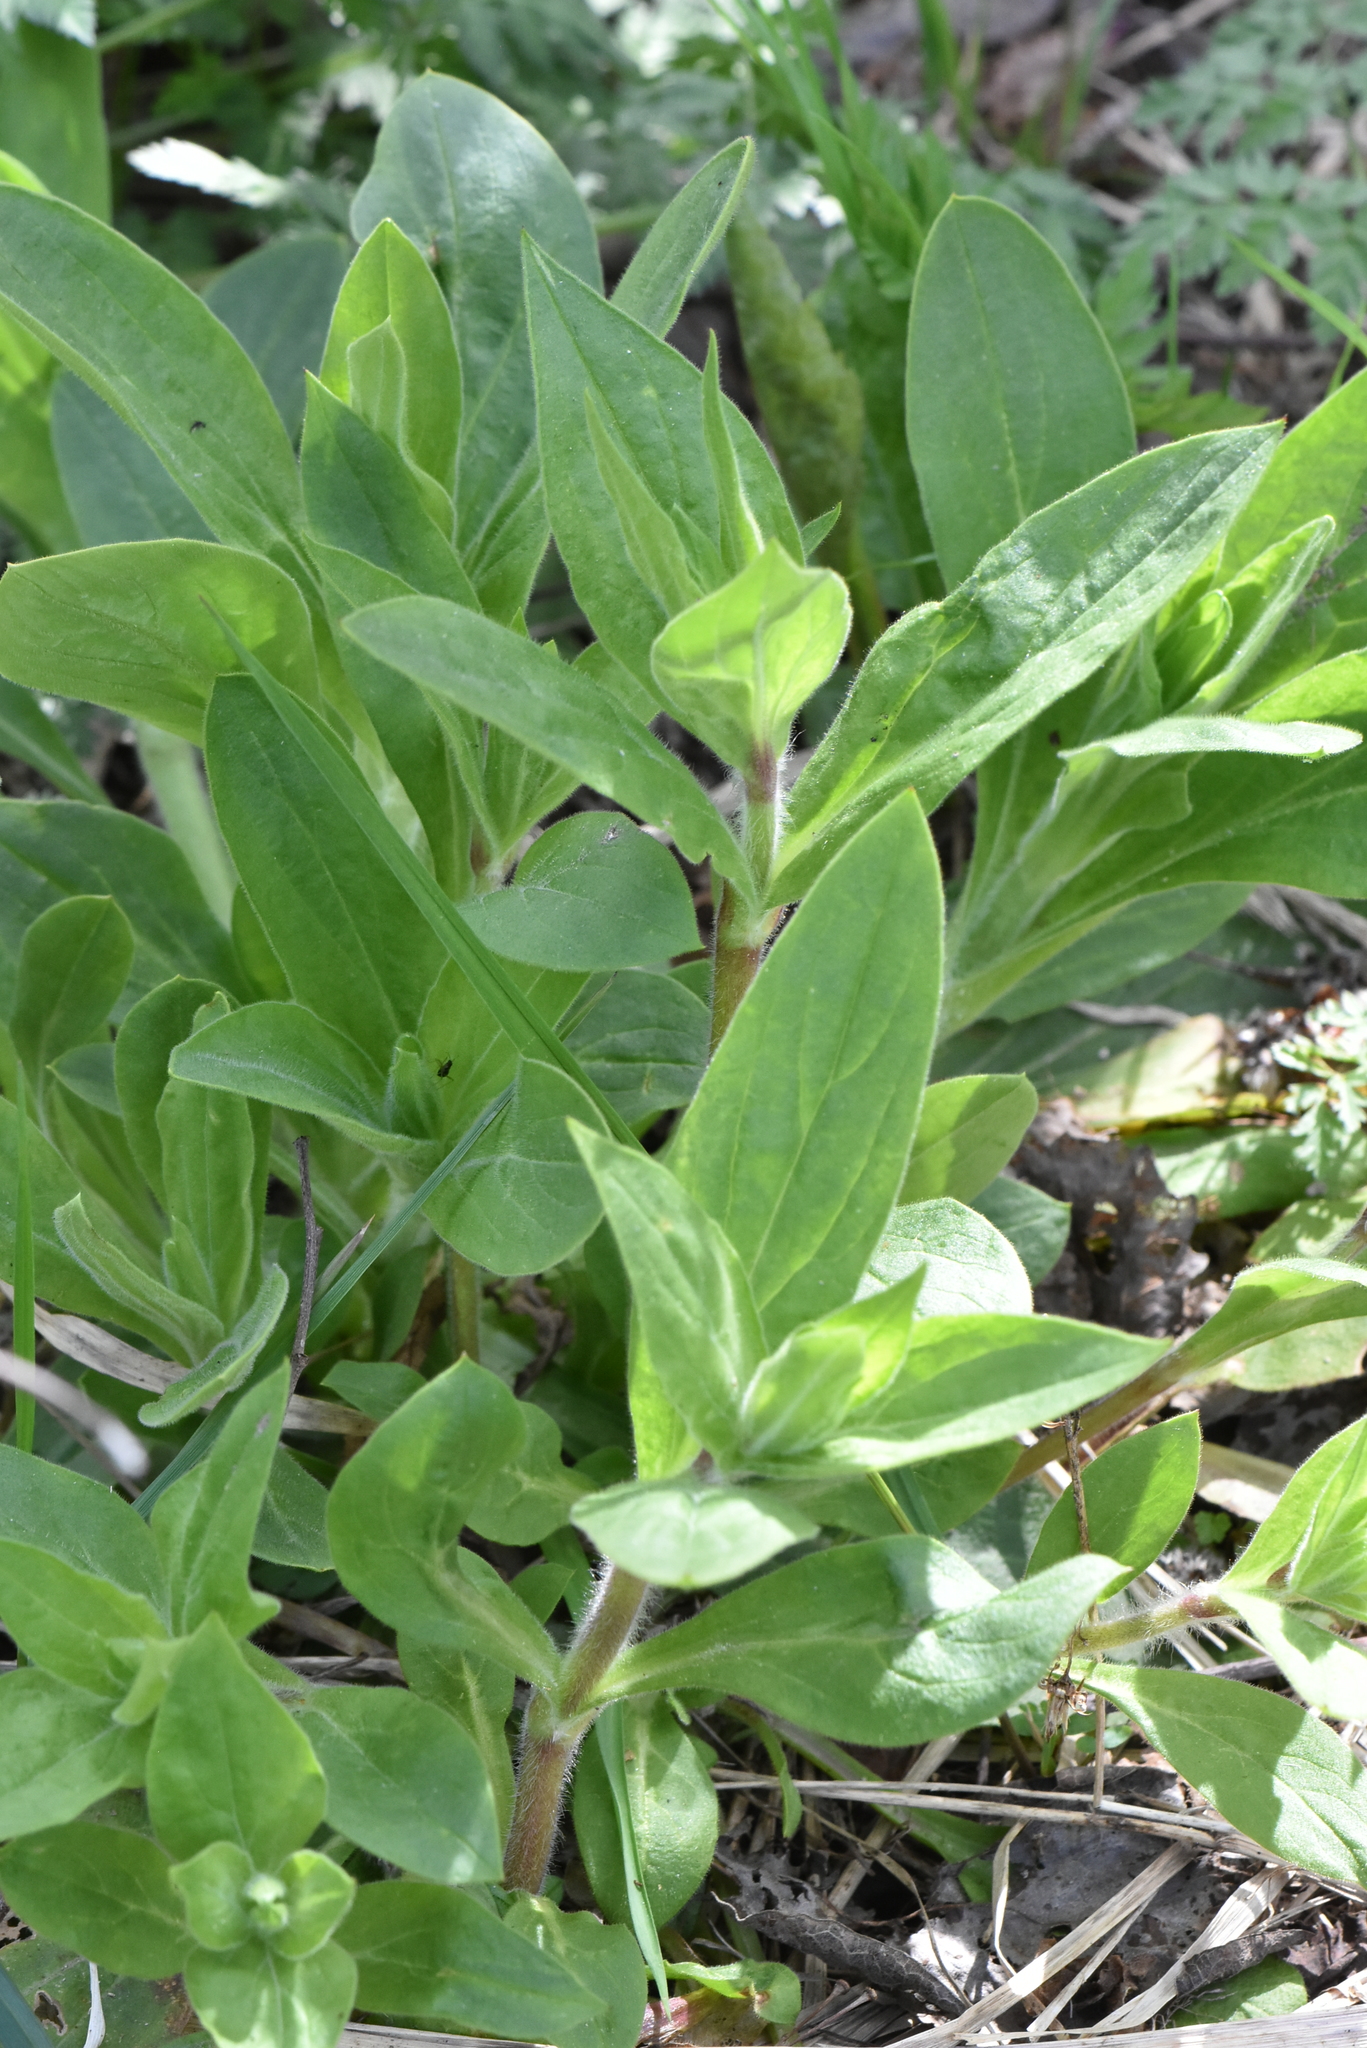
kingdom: Plantae
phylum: Tracheophyta
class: Magnoliopsida
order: Caryophyllales
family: Caryophyllaceae
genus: Silene
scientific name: Silene latifolia
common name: White campion
